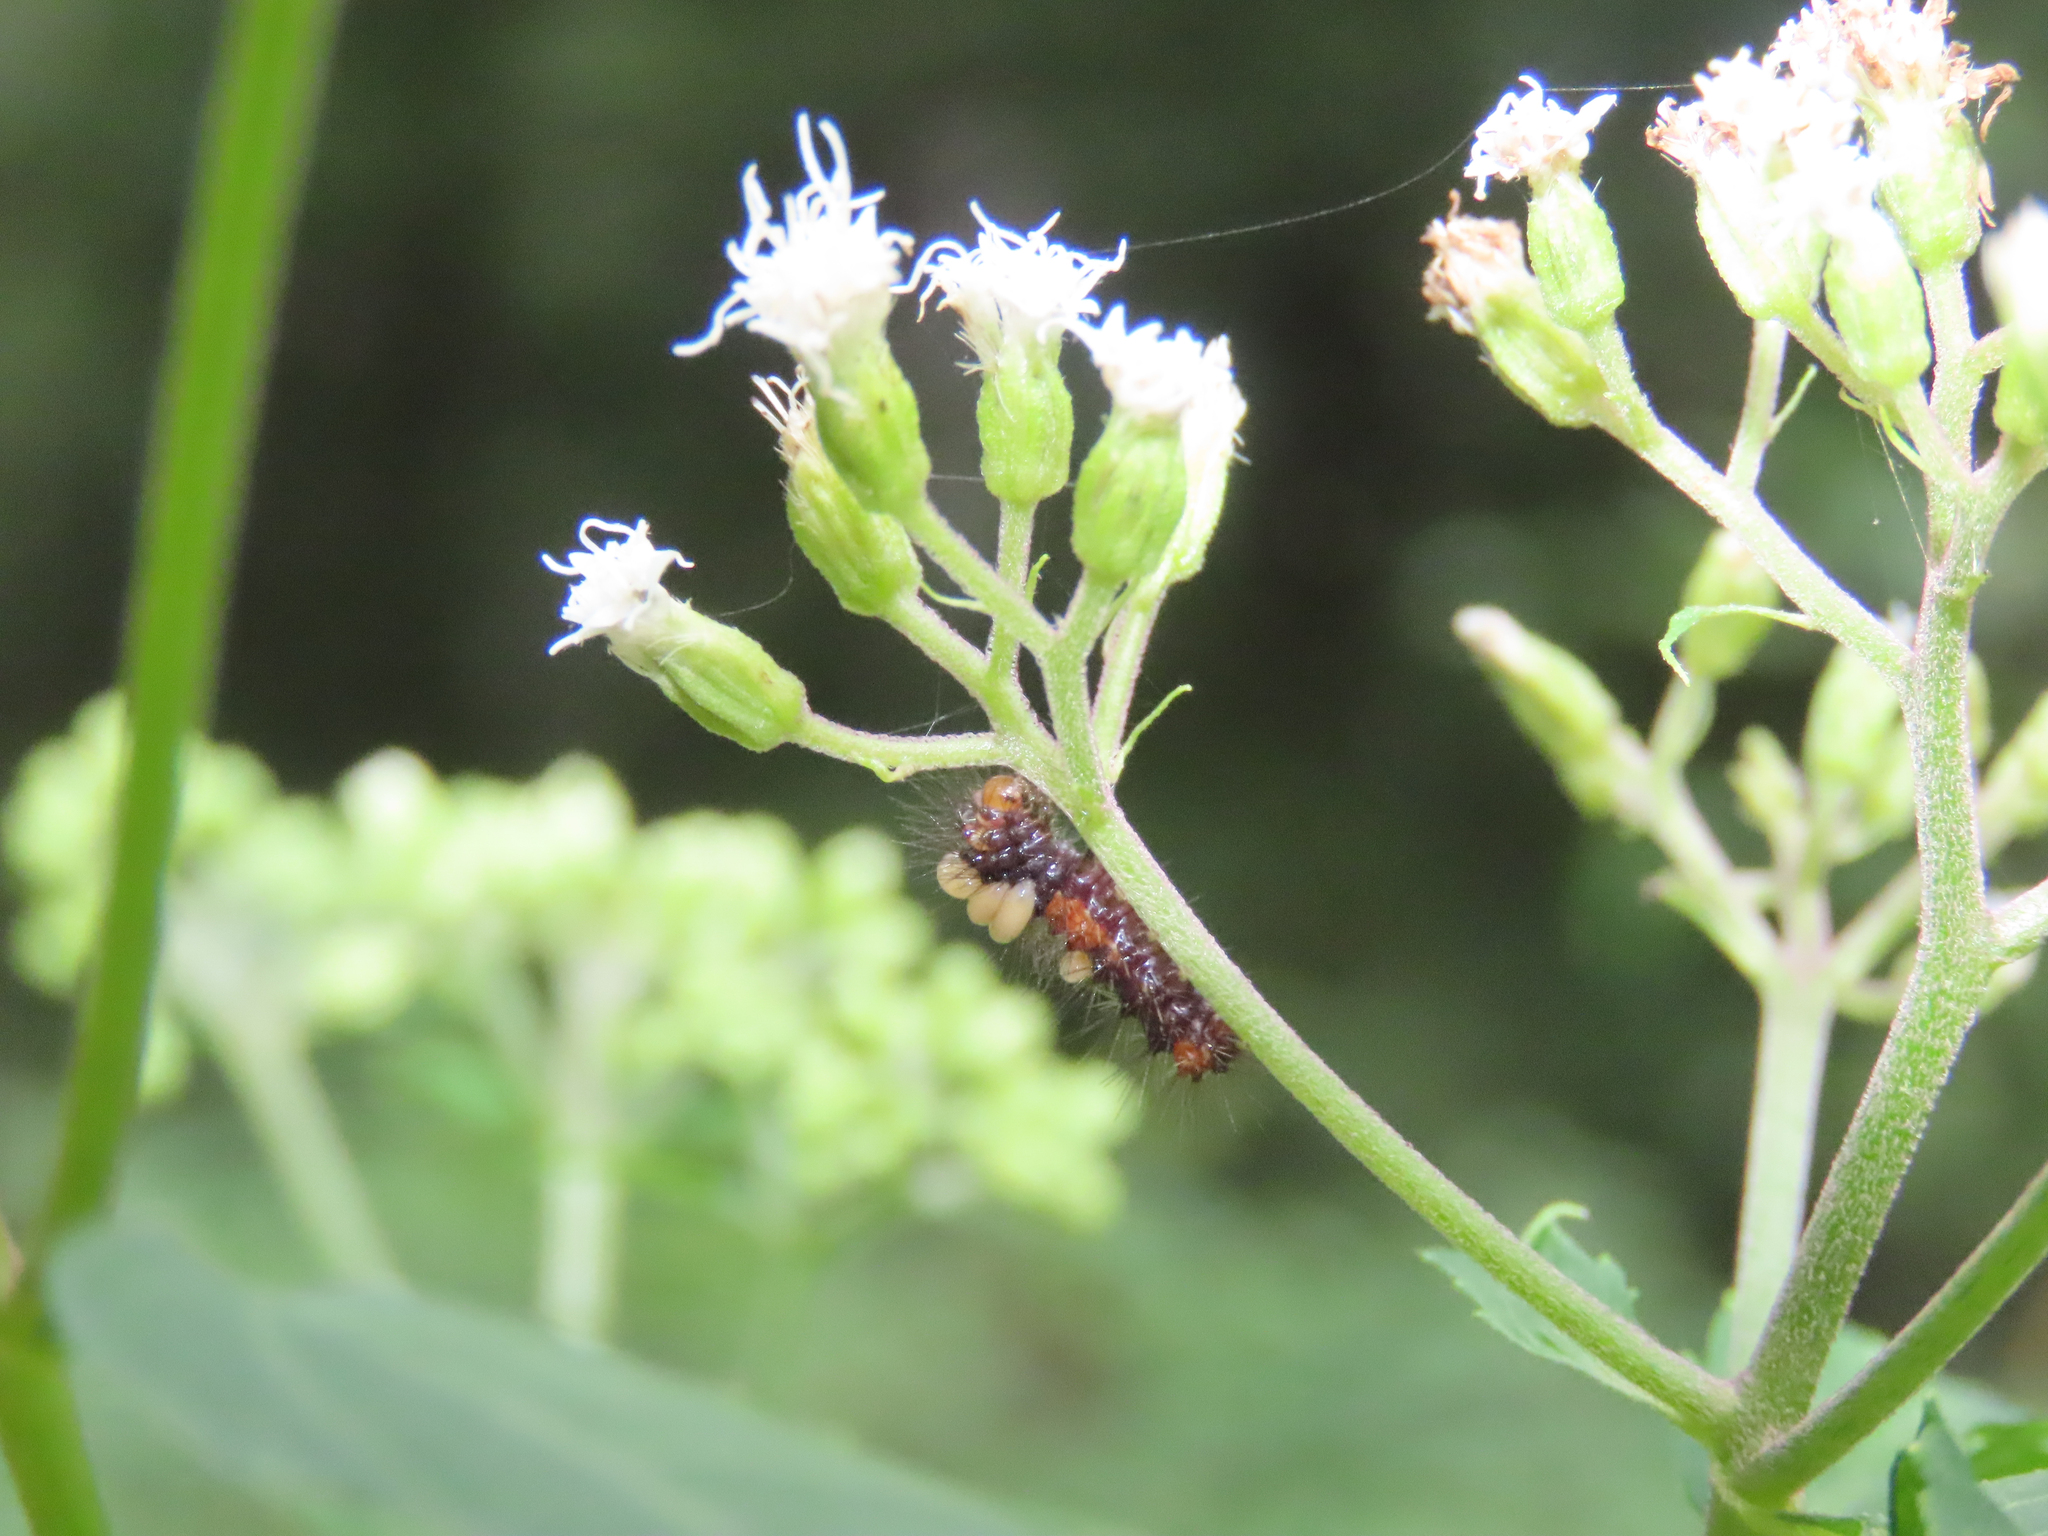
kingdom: Animalia
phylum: Arthropoda
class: Insecta
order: Lepidoptera
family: Erebidae
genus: Hypercompe
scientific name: Hypercompe scribonia
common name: Giant leopard moth
